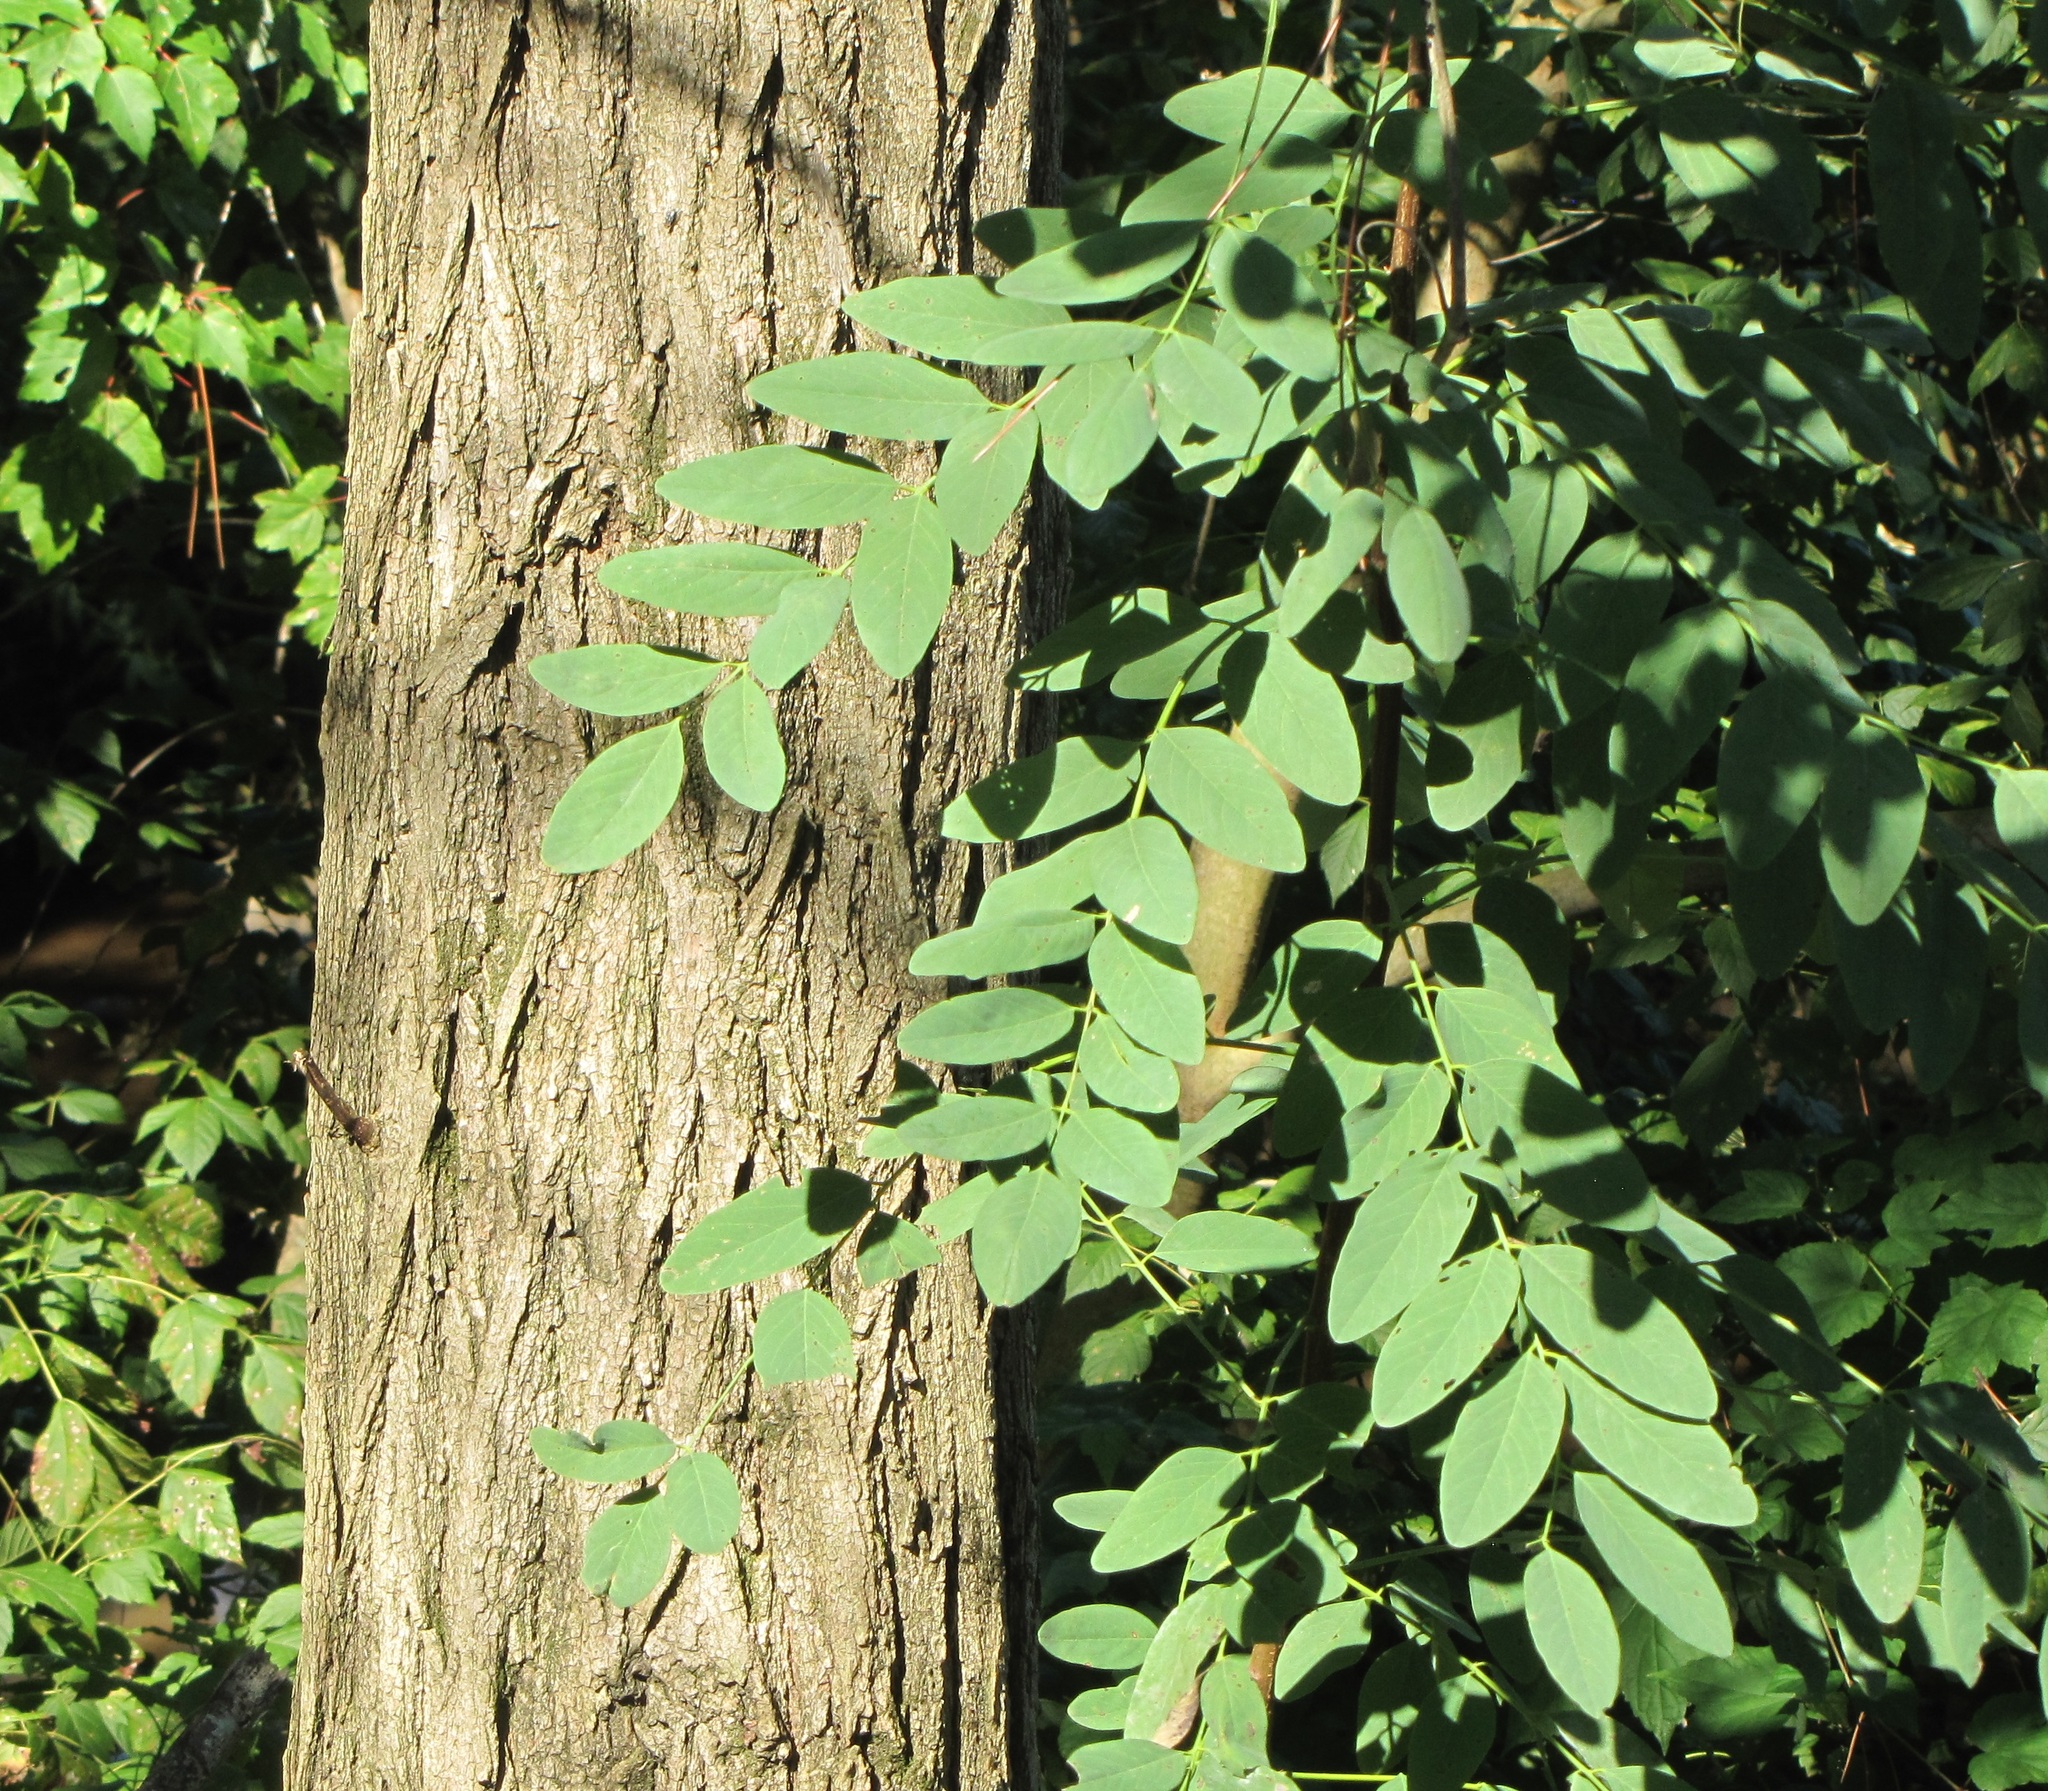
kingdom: Plantae
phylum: Tracheophyta
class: Magnoliopsida
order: Fabales
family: Fabaceae
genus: Robinia
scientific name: Robinia pseudoacacia
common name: Black locust
